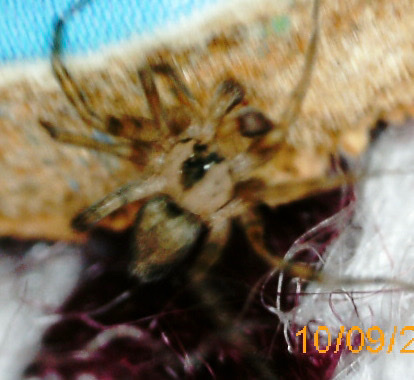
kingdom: Animalia
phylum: Arthropoda
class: Arachnida
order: Araneae
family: Oecobiidae
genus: Oecobius
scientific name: Oecobius navus
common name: Flatmesh weaver
